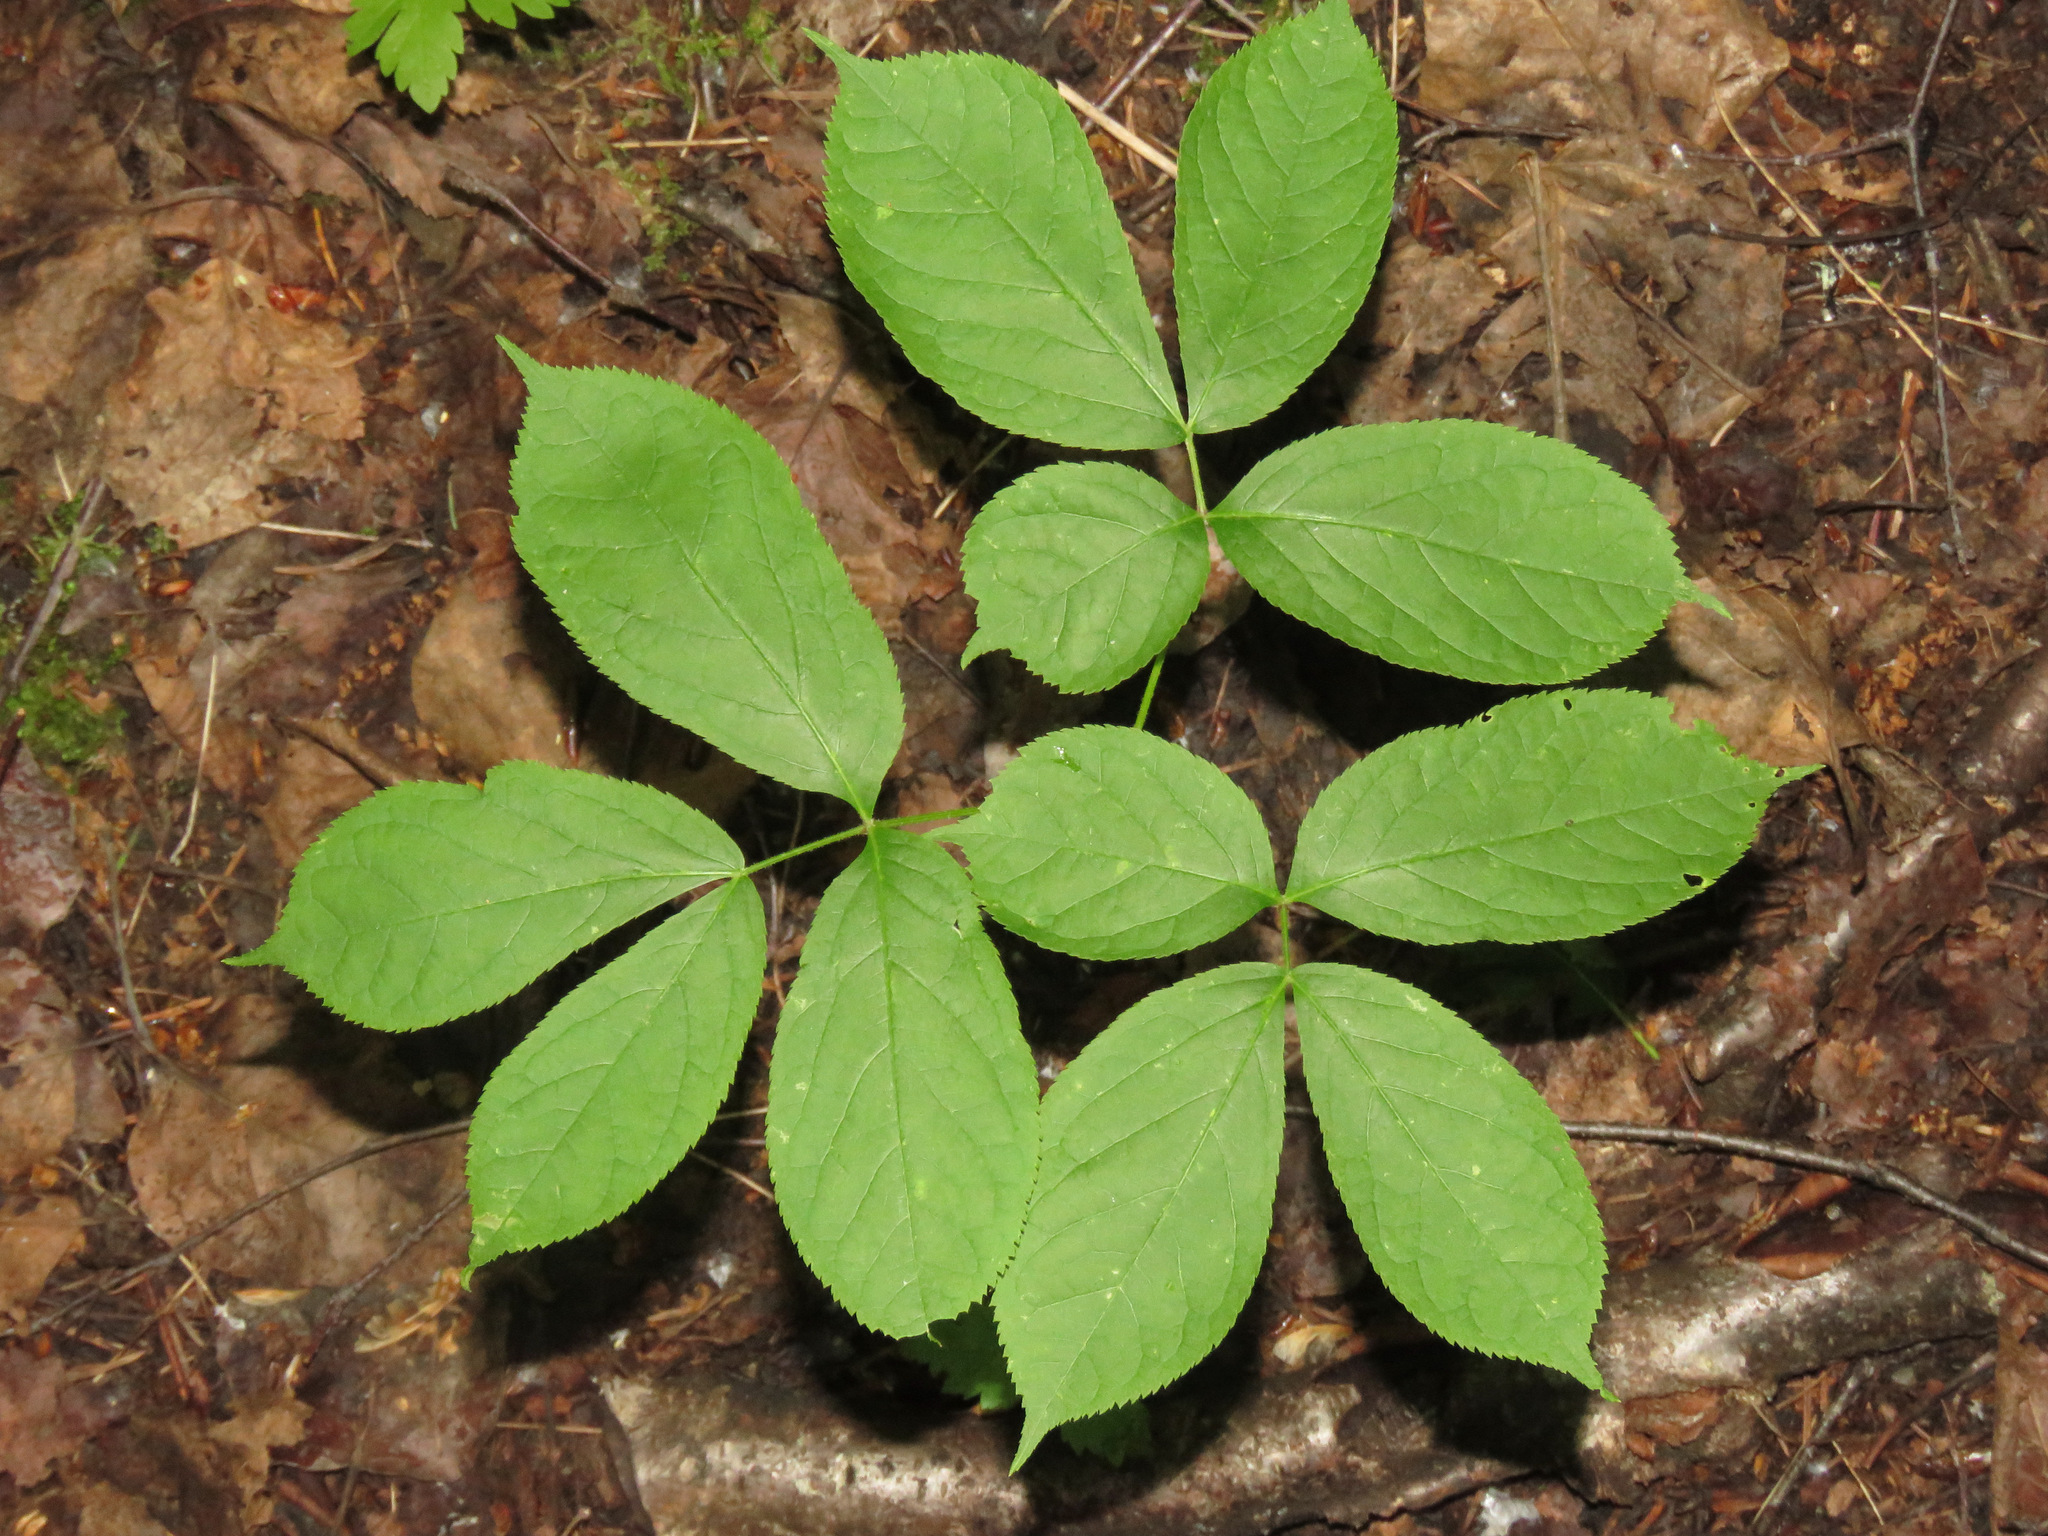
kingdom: Plantae
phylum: Tracheophyta
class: Magnoliopsida
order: Apiales
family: Araliaceae
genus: Aralia
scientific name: Aralia nudicaulis
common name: Wild sarsaparilla
